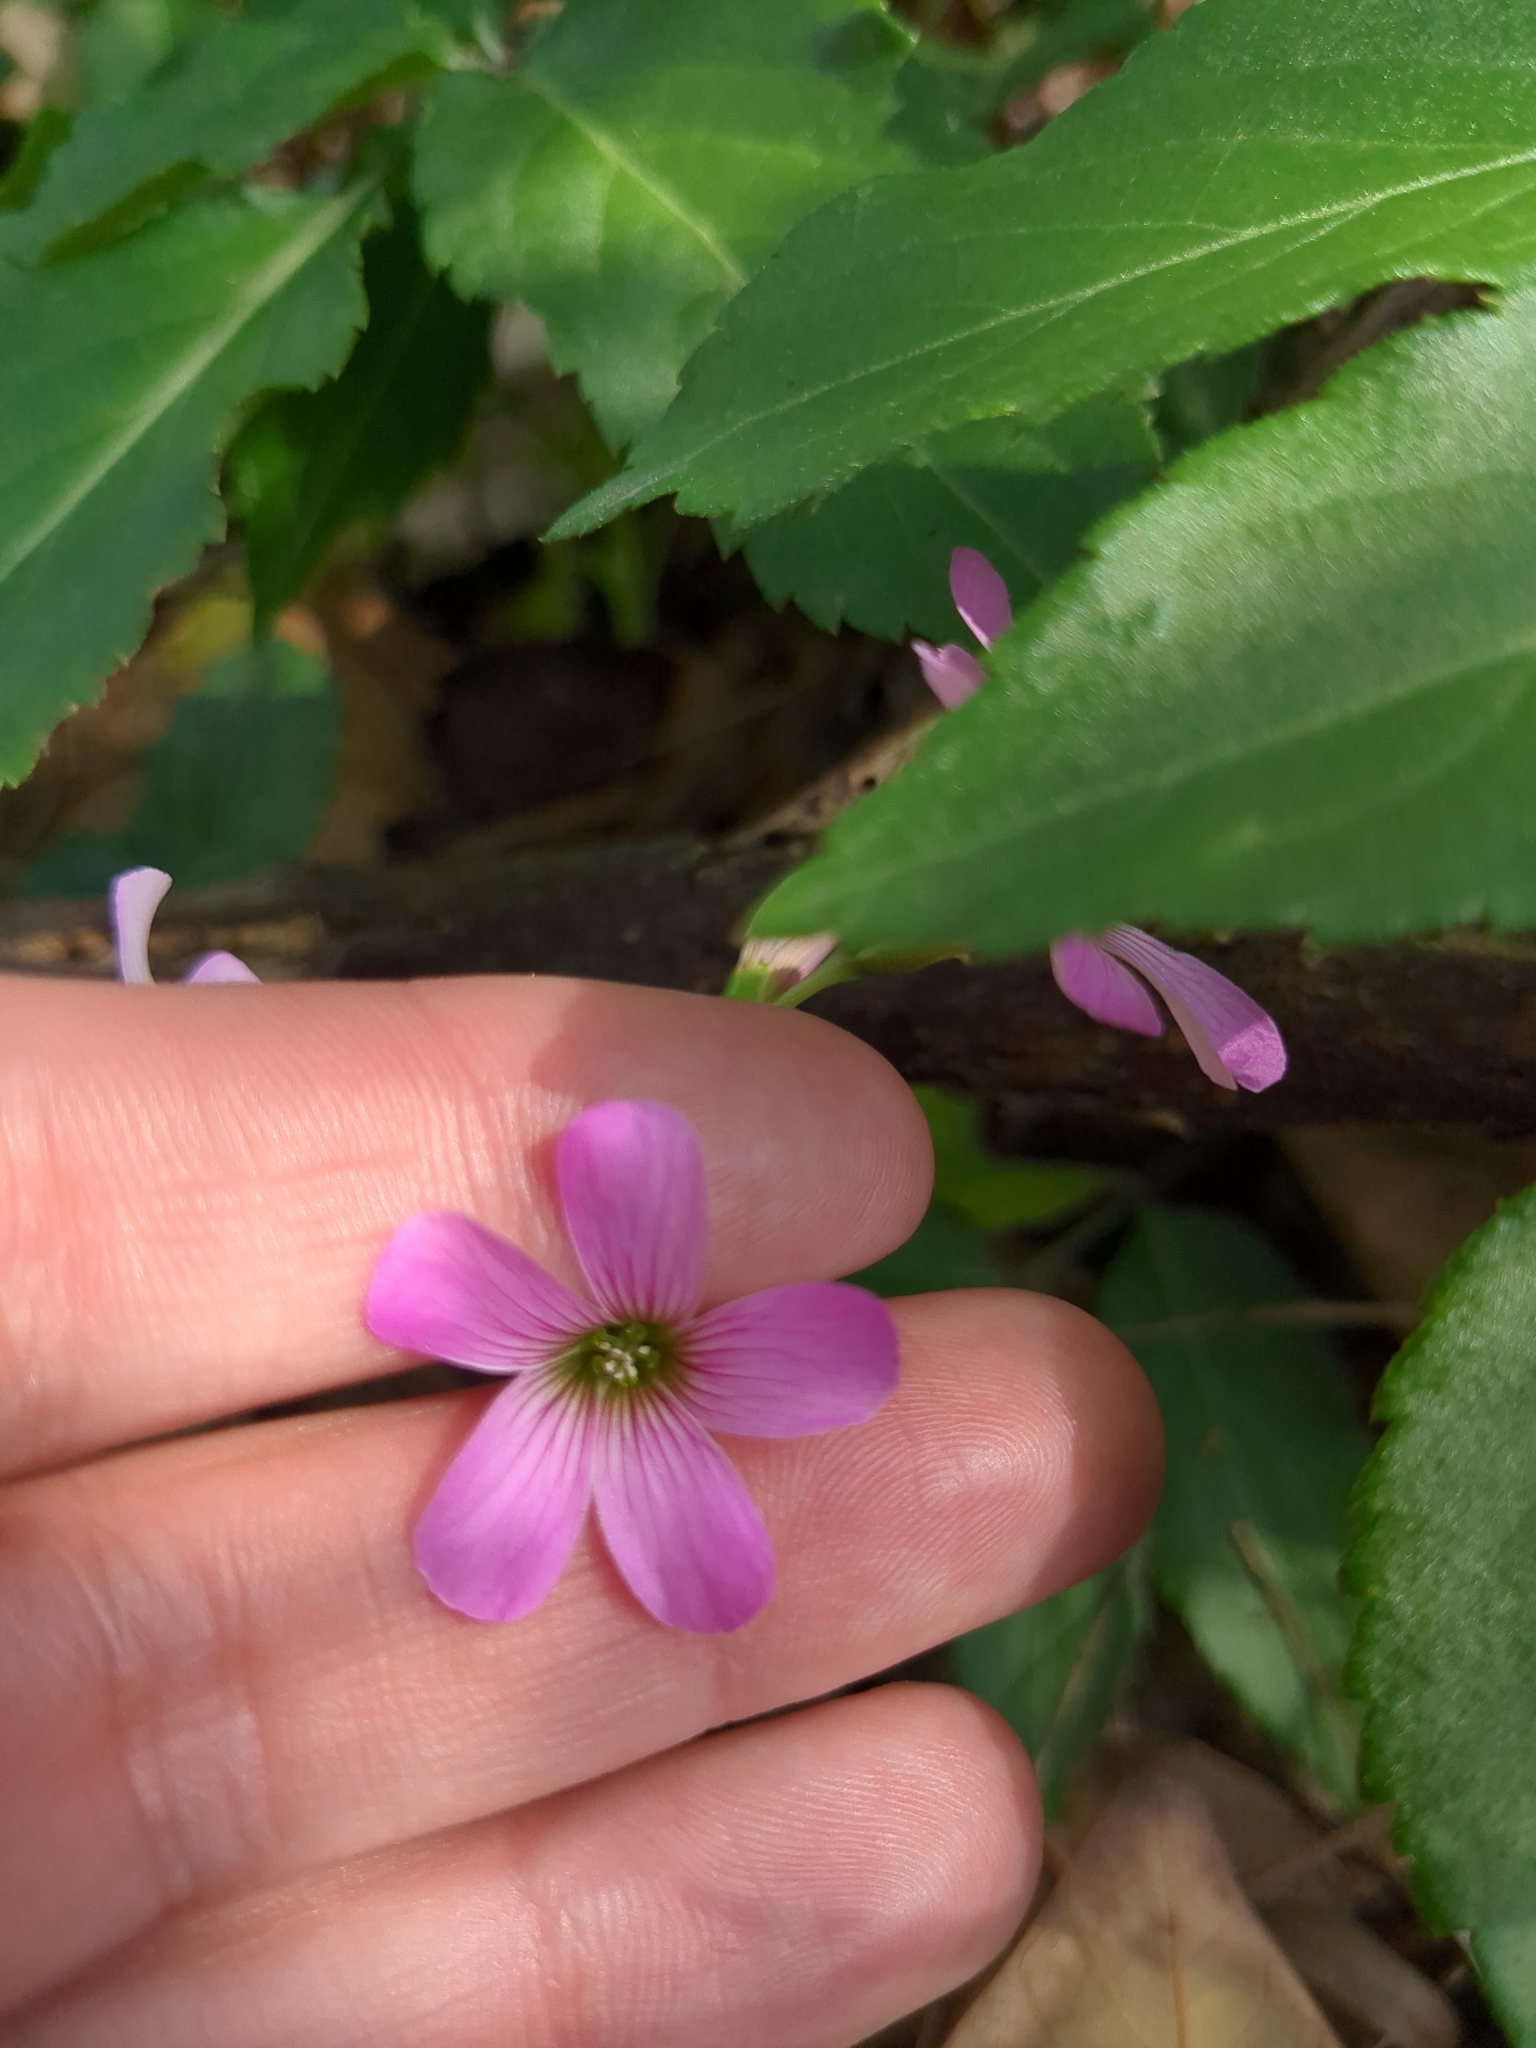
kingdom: Plantae
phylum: Tracheophyta
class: Magnoliopsida
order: Oxalidales
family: Oxalidaceae
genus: Oxalis
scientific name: Oxalis debilis
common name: Large-flowered pink-sorrel
